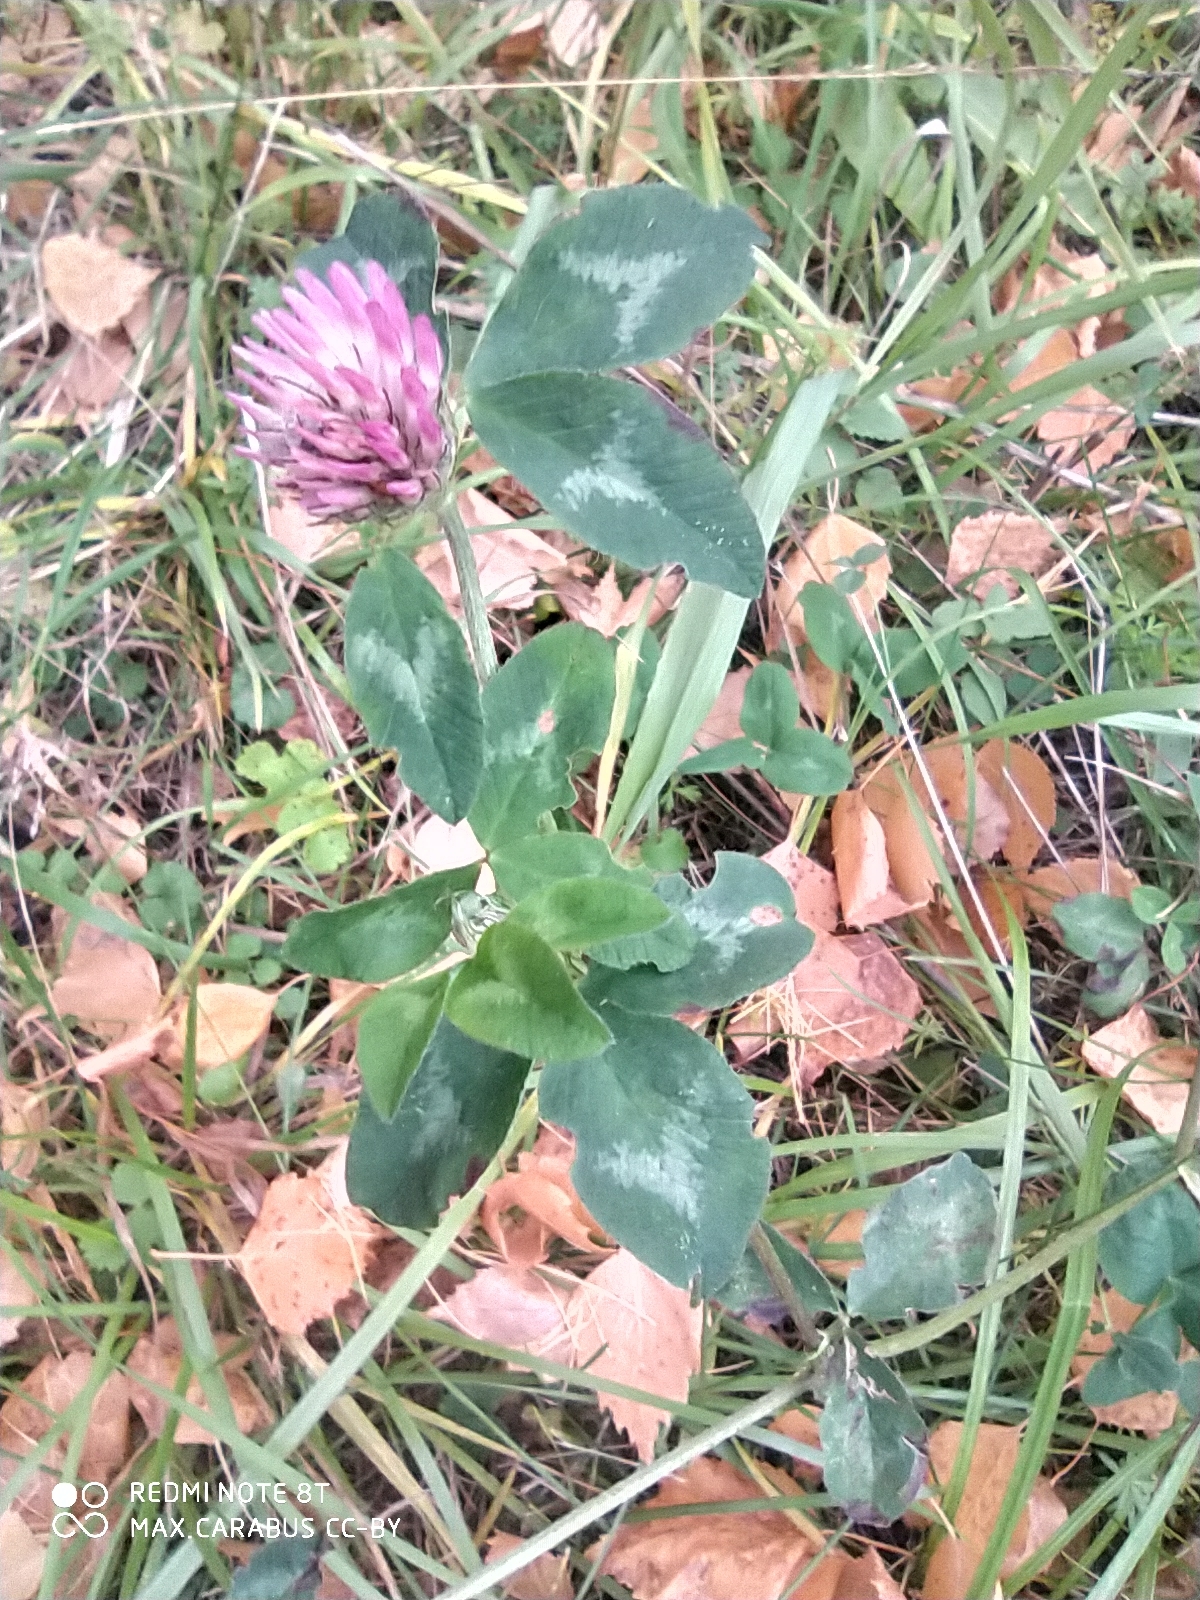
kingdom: Plantae
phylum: Tracheophyta
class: Magnoliopsida
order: Fabales
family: Fabaceae
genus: Trifolium
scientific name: Trifolium pratense
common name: Red clover
